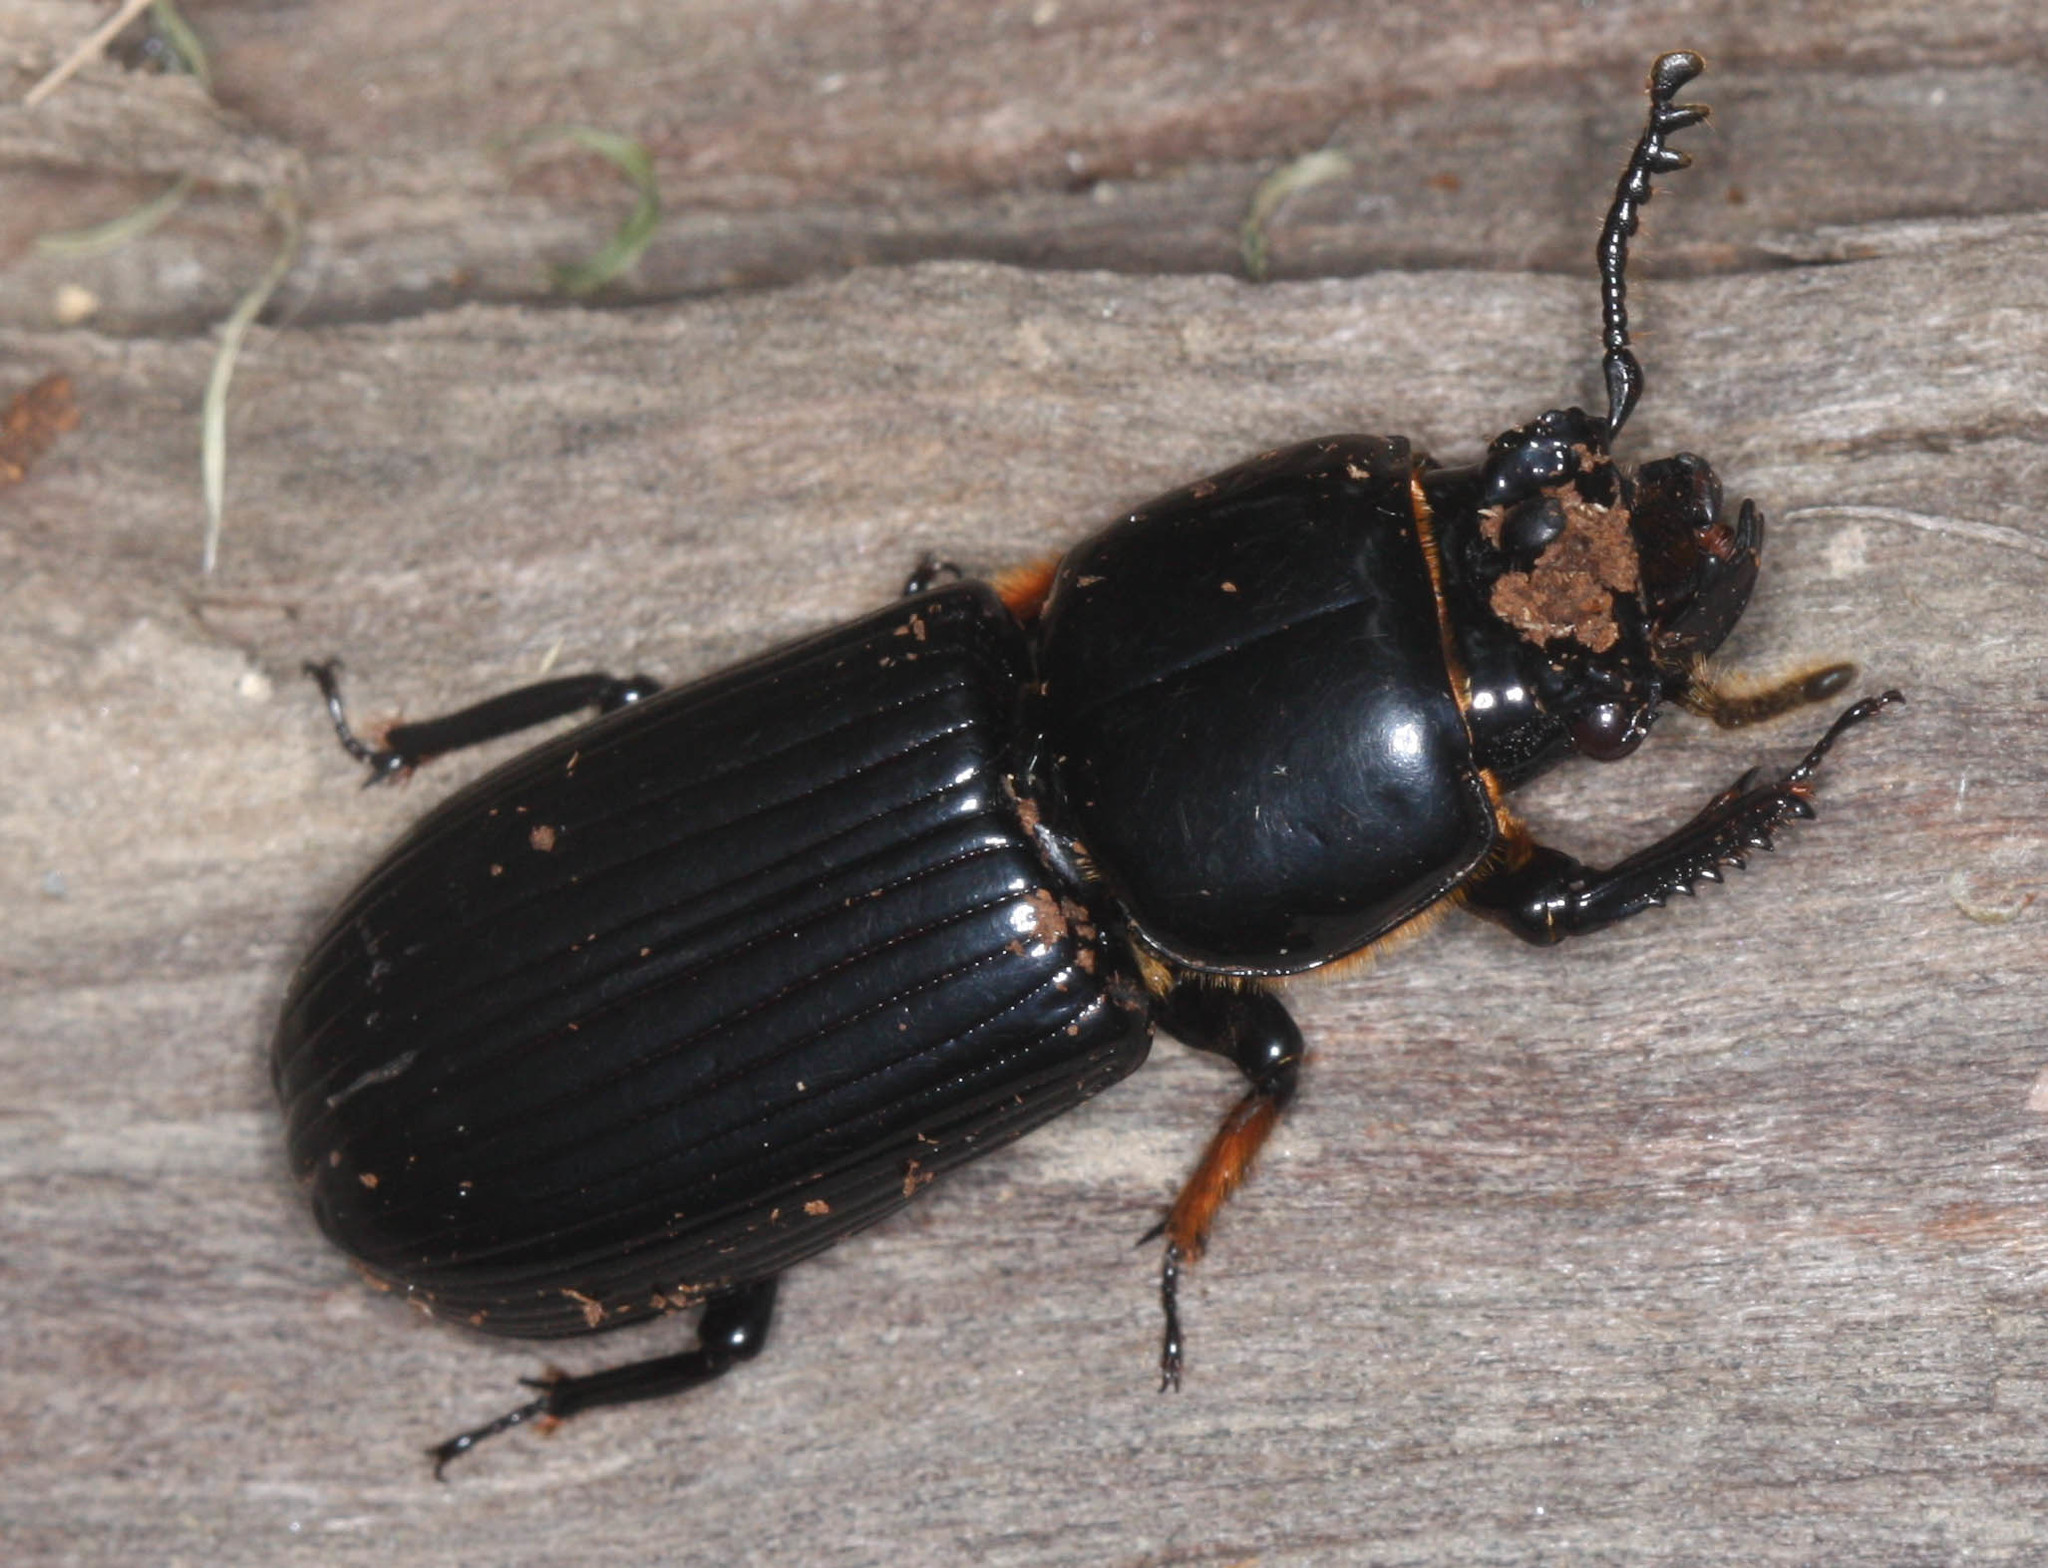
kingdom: Animalia
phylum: Arthropoda
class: Insecta
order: Coleoptera
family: Passalidae
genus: Odontotaenius
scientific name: Odontotaenius disjunctus
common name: Patent leather beetle
